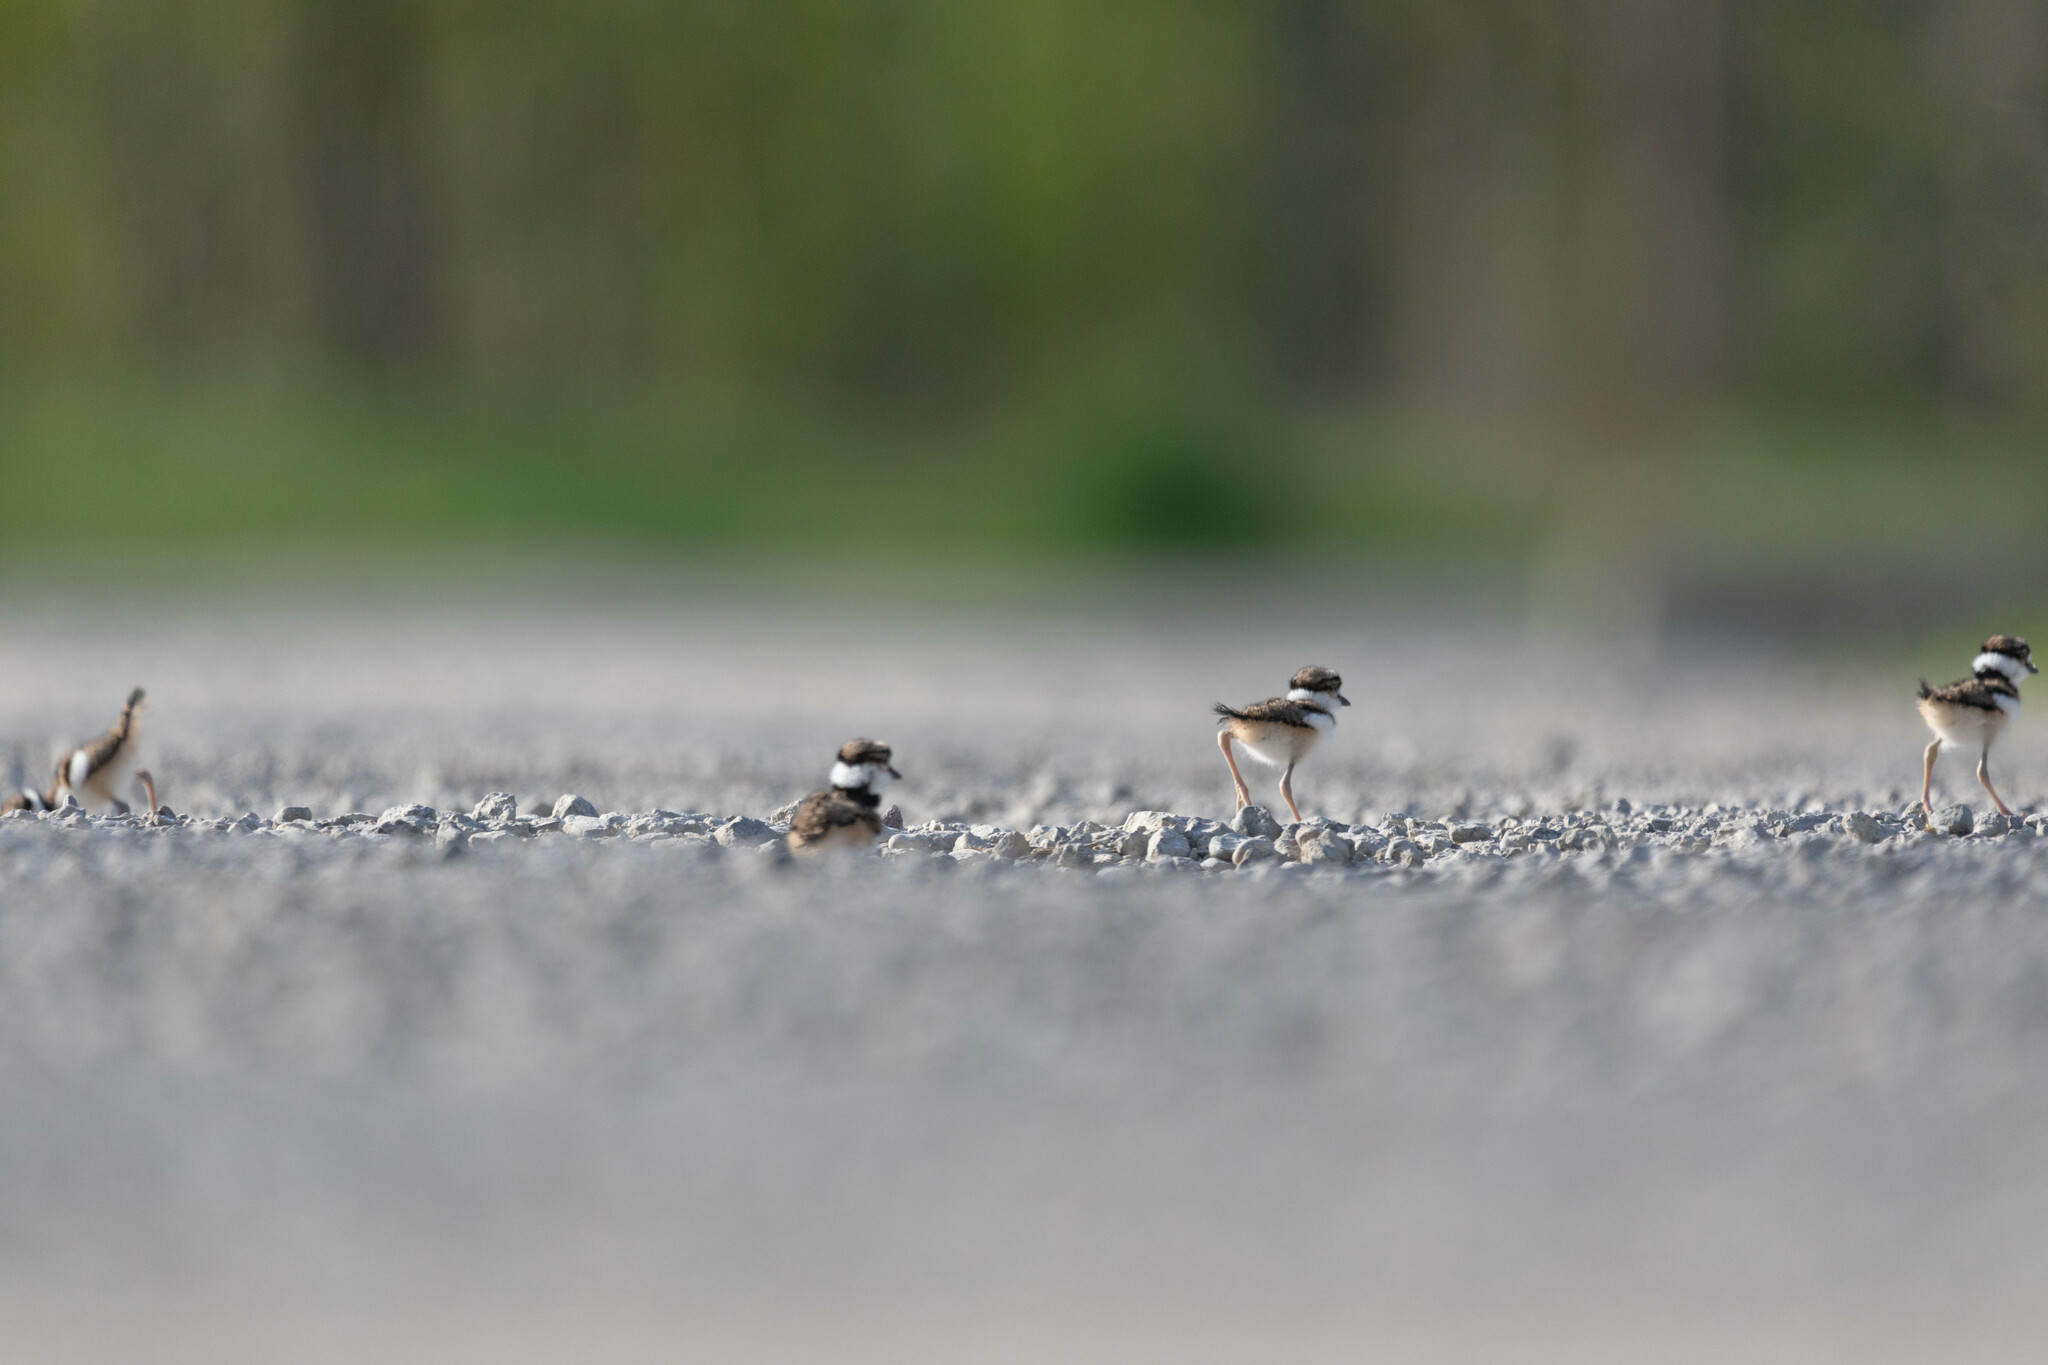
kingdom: Animalia
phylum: Chordata
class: Aves
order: Charadriiformes
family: Charadriidae
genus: Charadrius
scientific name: Charadrius vociferus
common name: Killdeer
